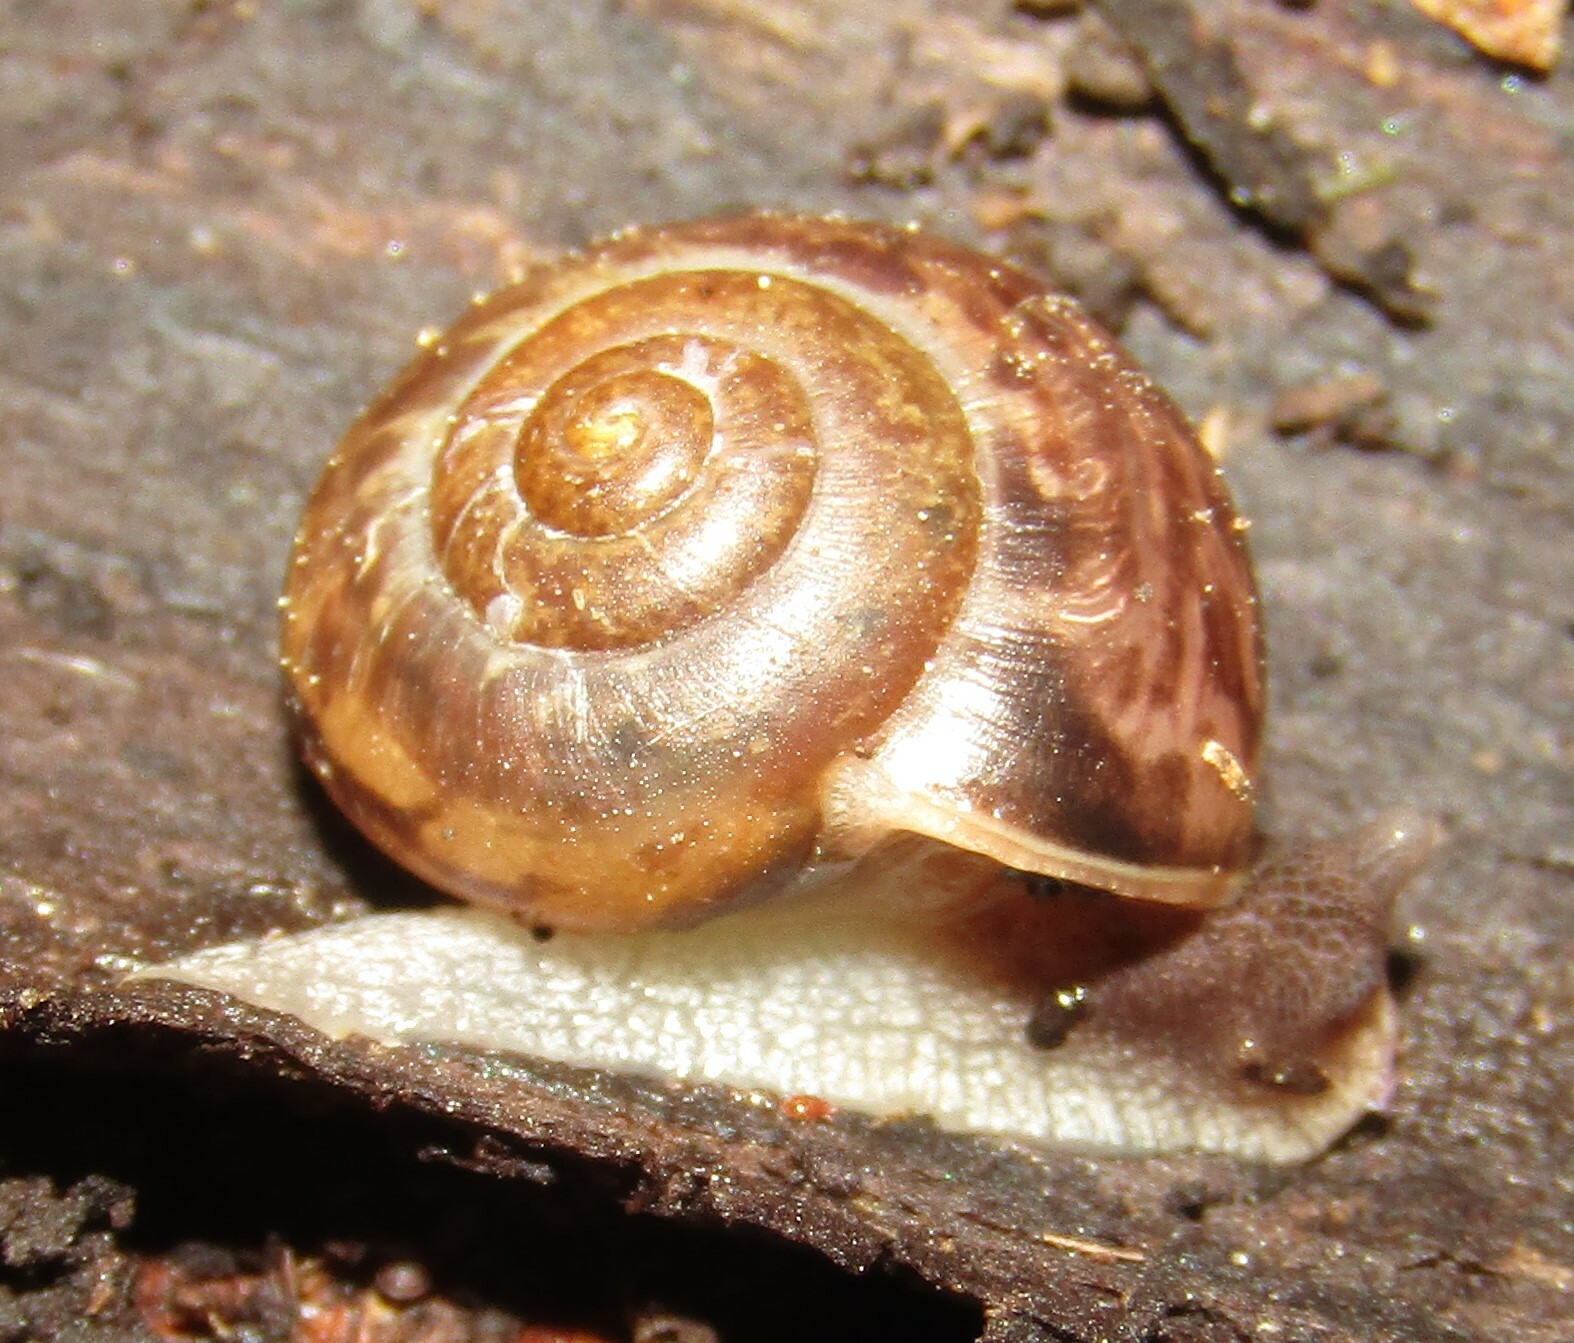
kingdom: Animalia
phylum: Mollusca
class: Gastropoda
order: Stylommatophora
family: Camaenidae
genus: Fruticicola
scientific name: Fruticicola fruticum
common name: Bush snail
